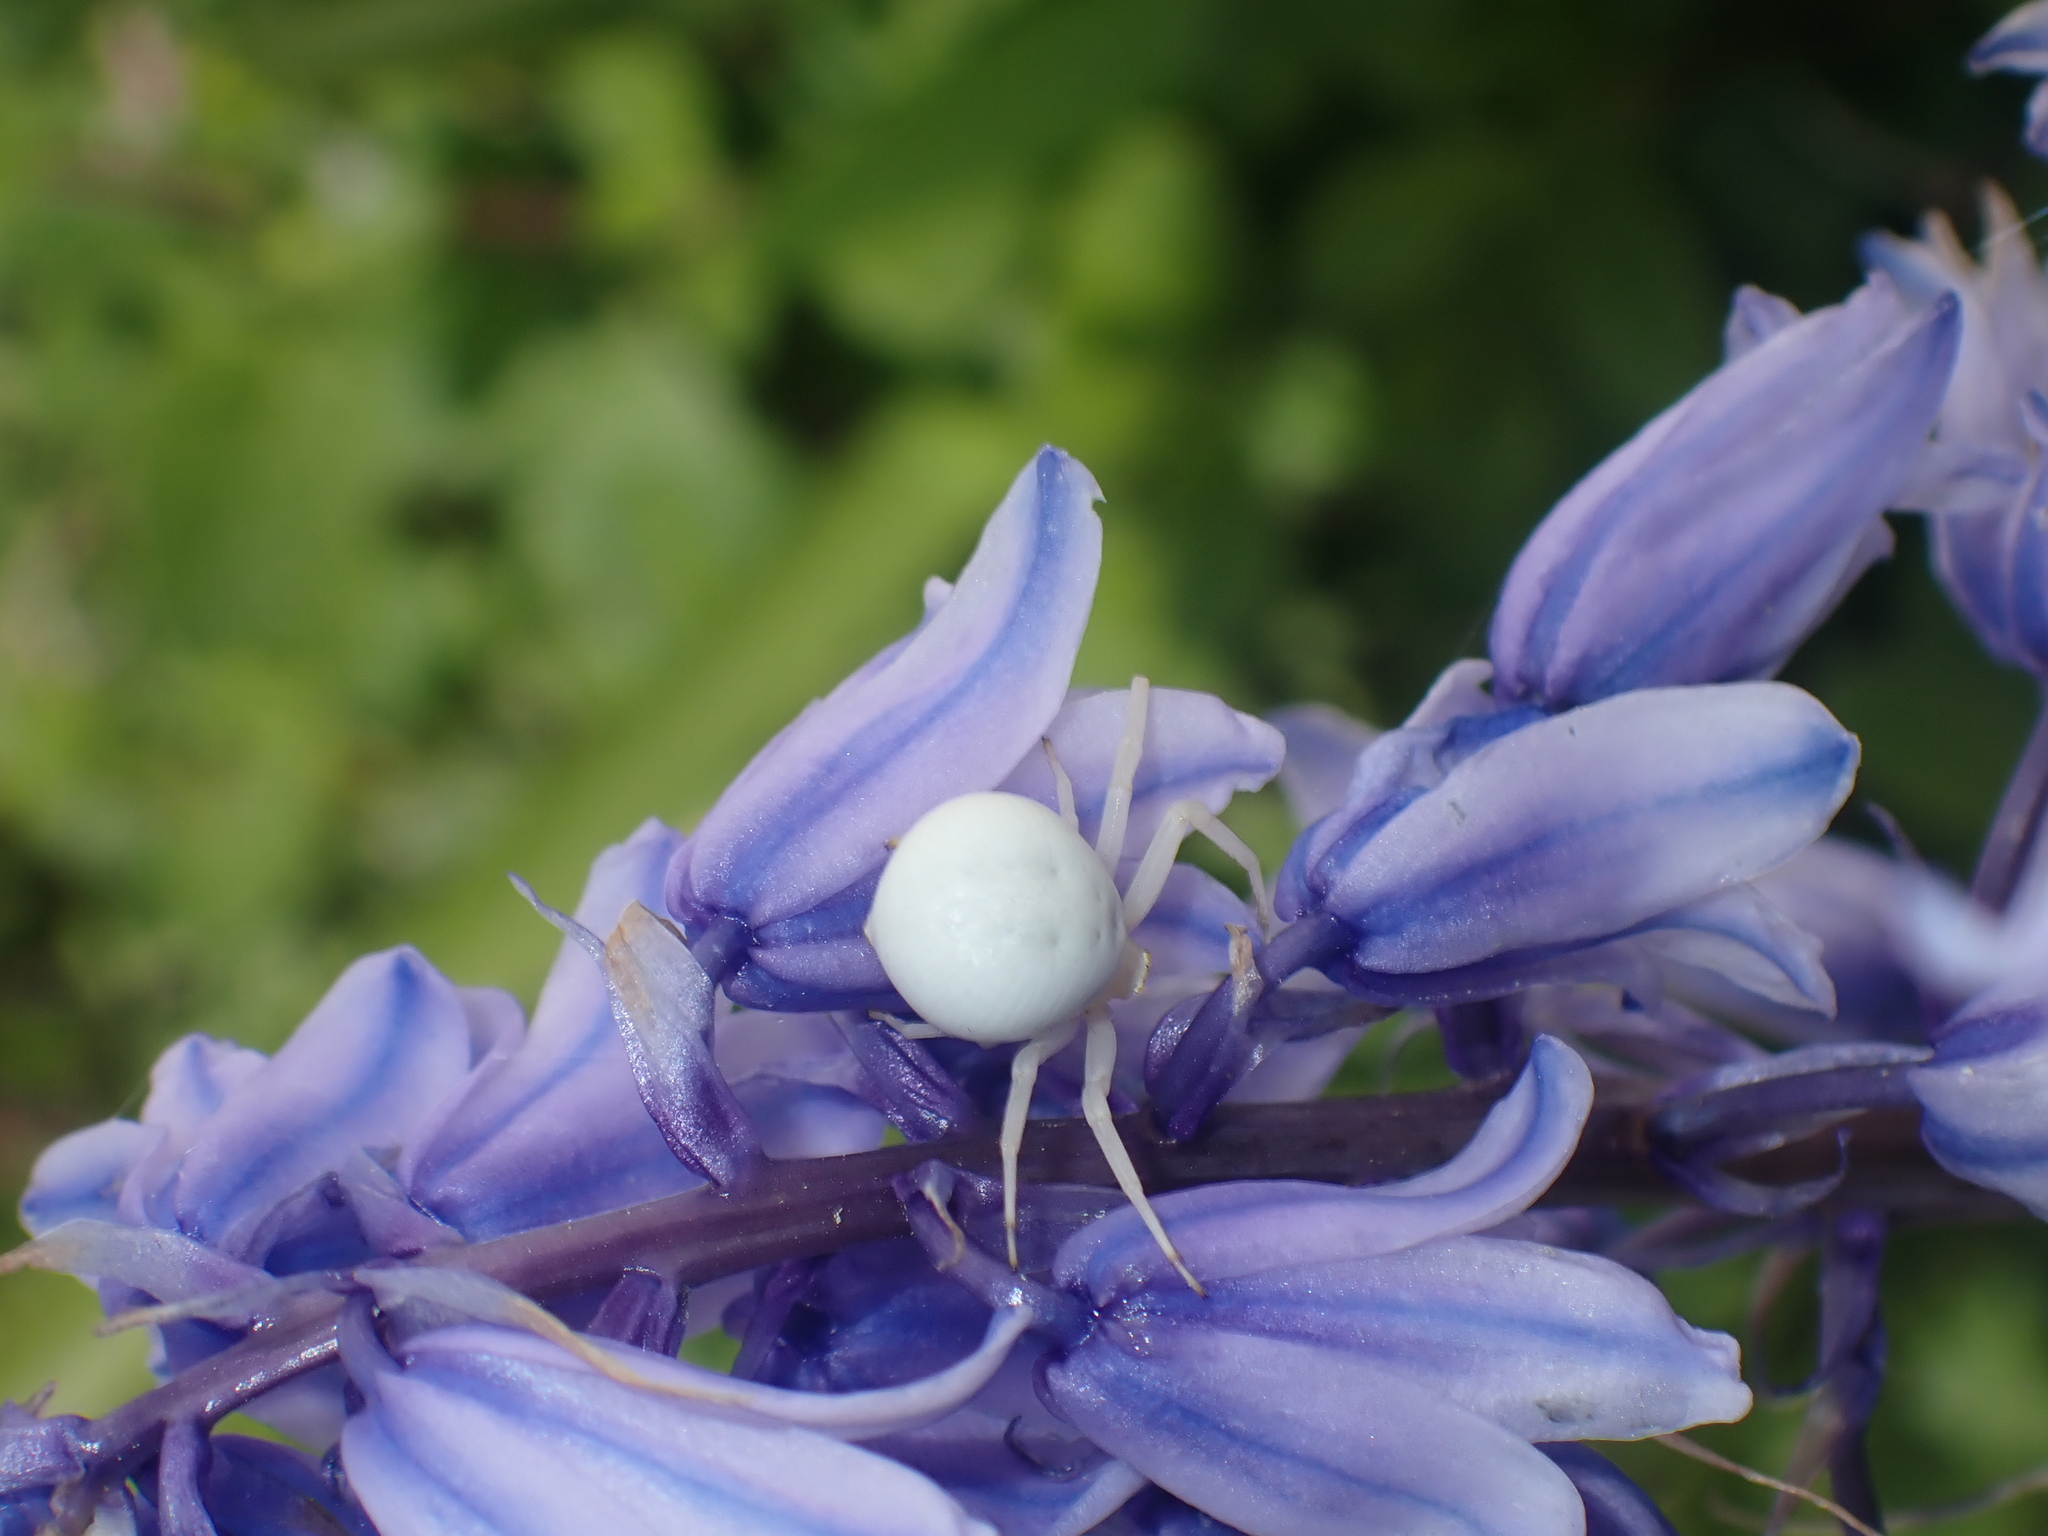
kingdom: Animalia
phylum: Arthropoda
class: Arachnida
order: Araneae
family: Thomisidae
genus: Misumena
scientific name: Misumena vatia
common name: Goldenrod crab spider
